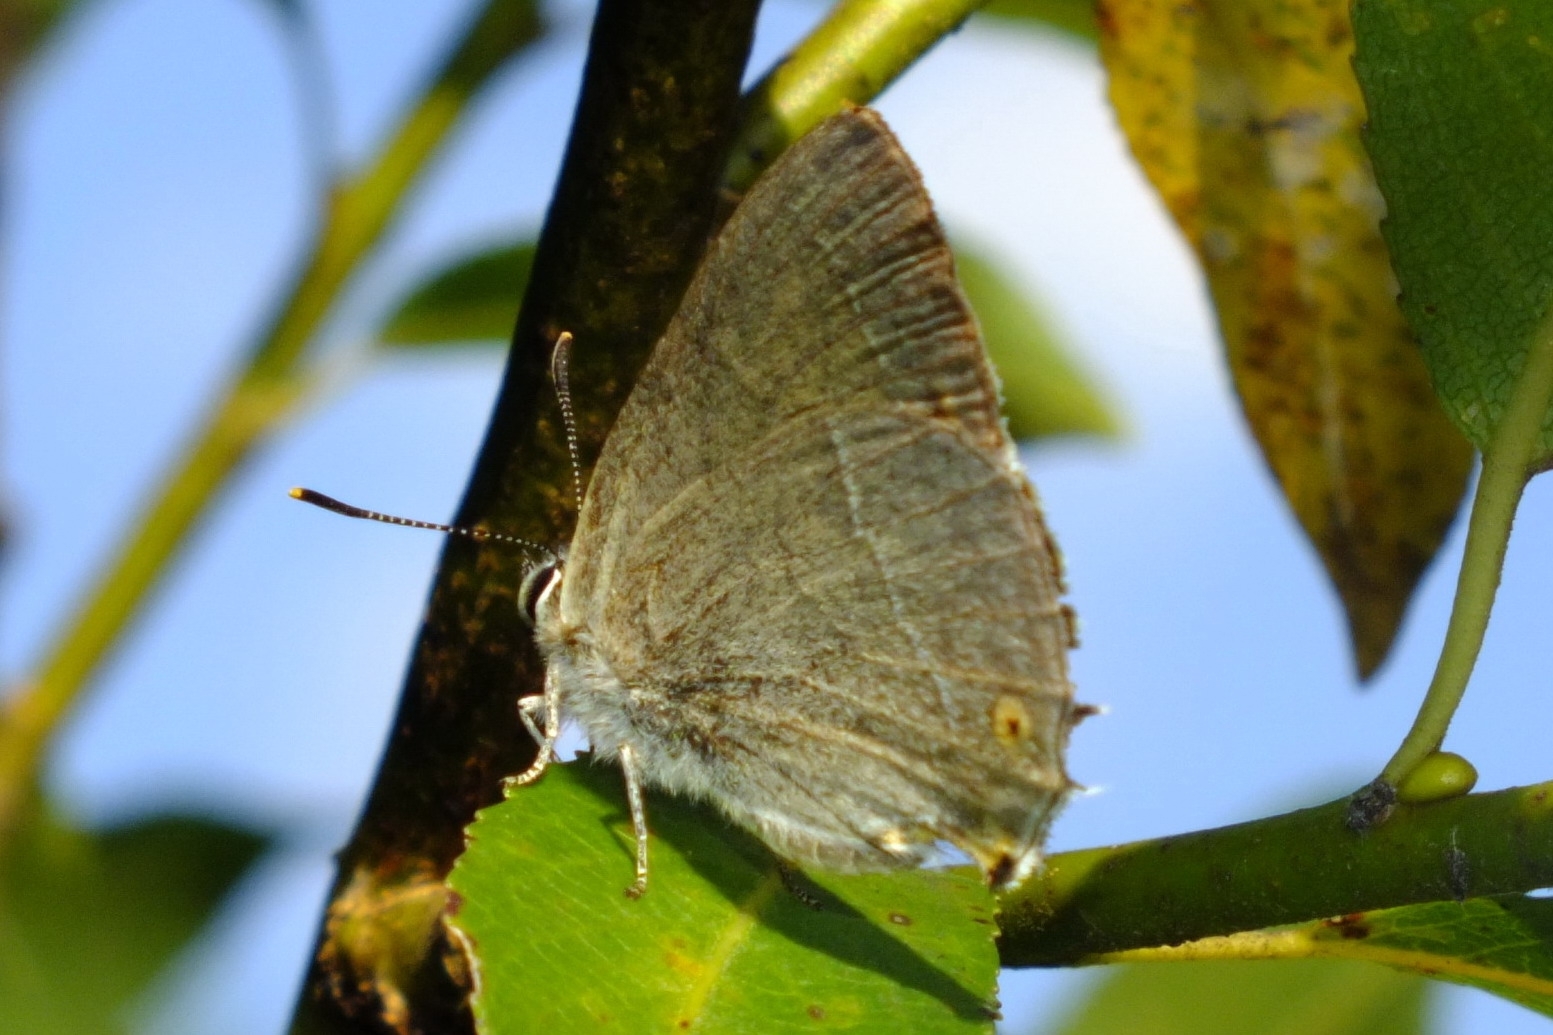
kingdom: Animalia
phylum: Arthropoda
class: Insecta
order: Lepidoptera
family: Lycaenidae
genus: Quercusia
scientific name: Quercusia quercus
